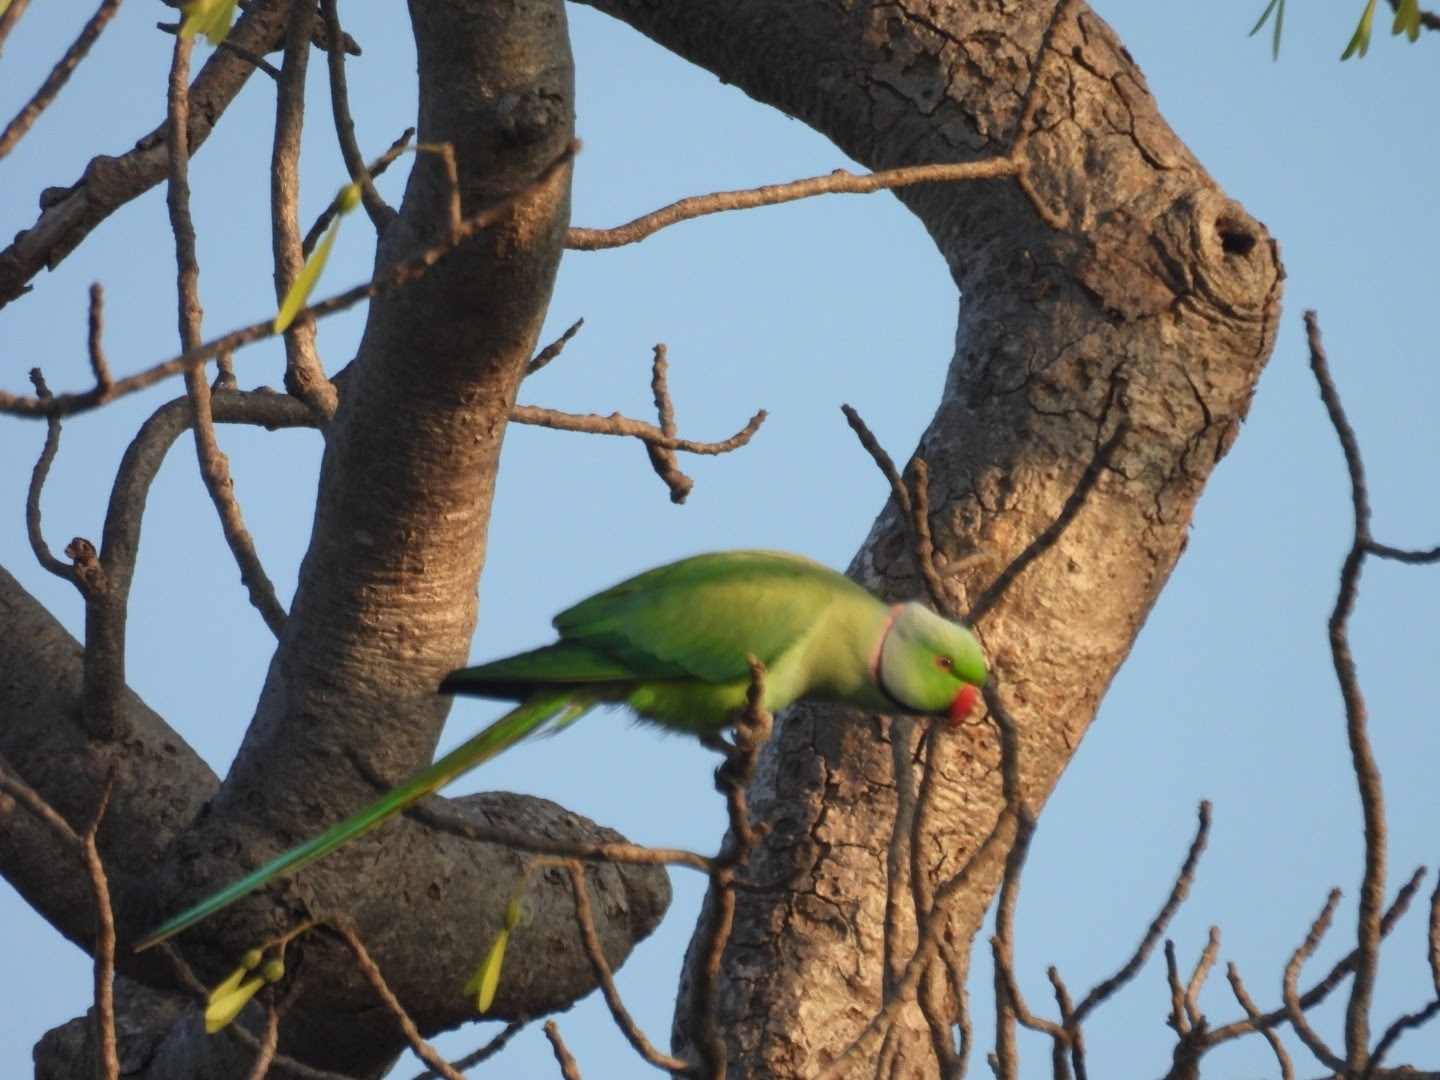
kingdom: Animalia
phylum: Chordata
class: Aves
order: Psittaciformes
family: Psittacidae
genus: Psittacula
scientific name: Psittacula krameri
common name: Rose-ringed parakeet
